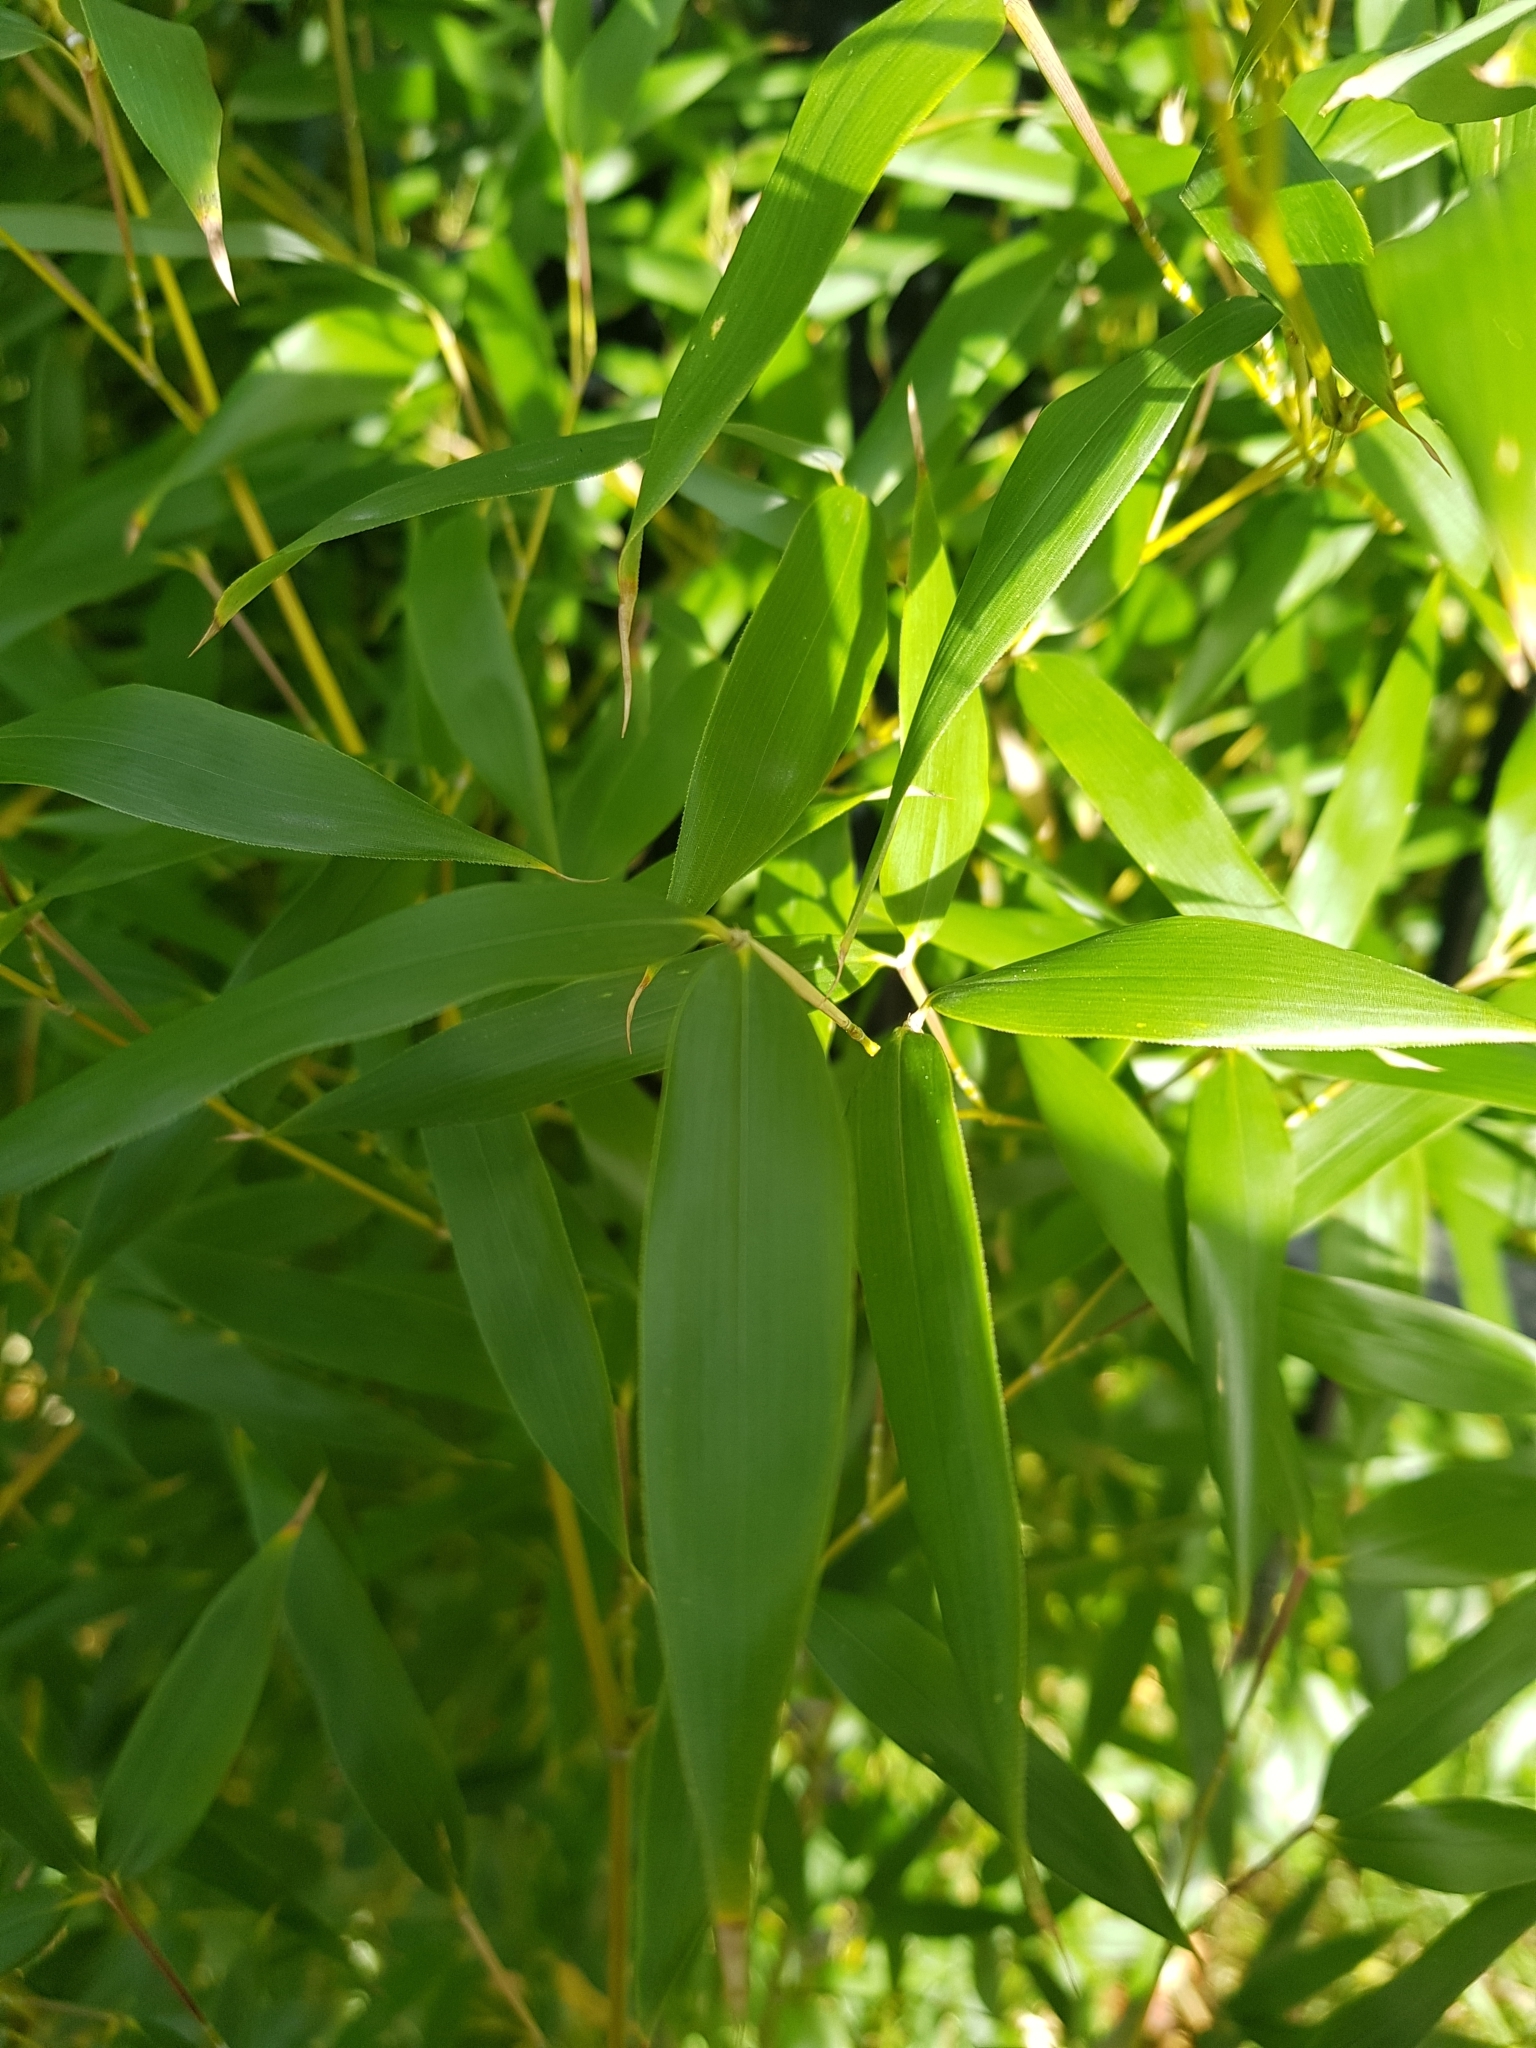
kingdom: Plantae
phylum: Tracheophyta
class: Liliopsida
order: Poales
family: Poaceae
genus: Phyllostachys
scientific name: Phyllostachys aurea
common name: Golden bamboo
